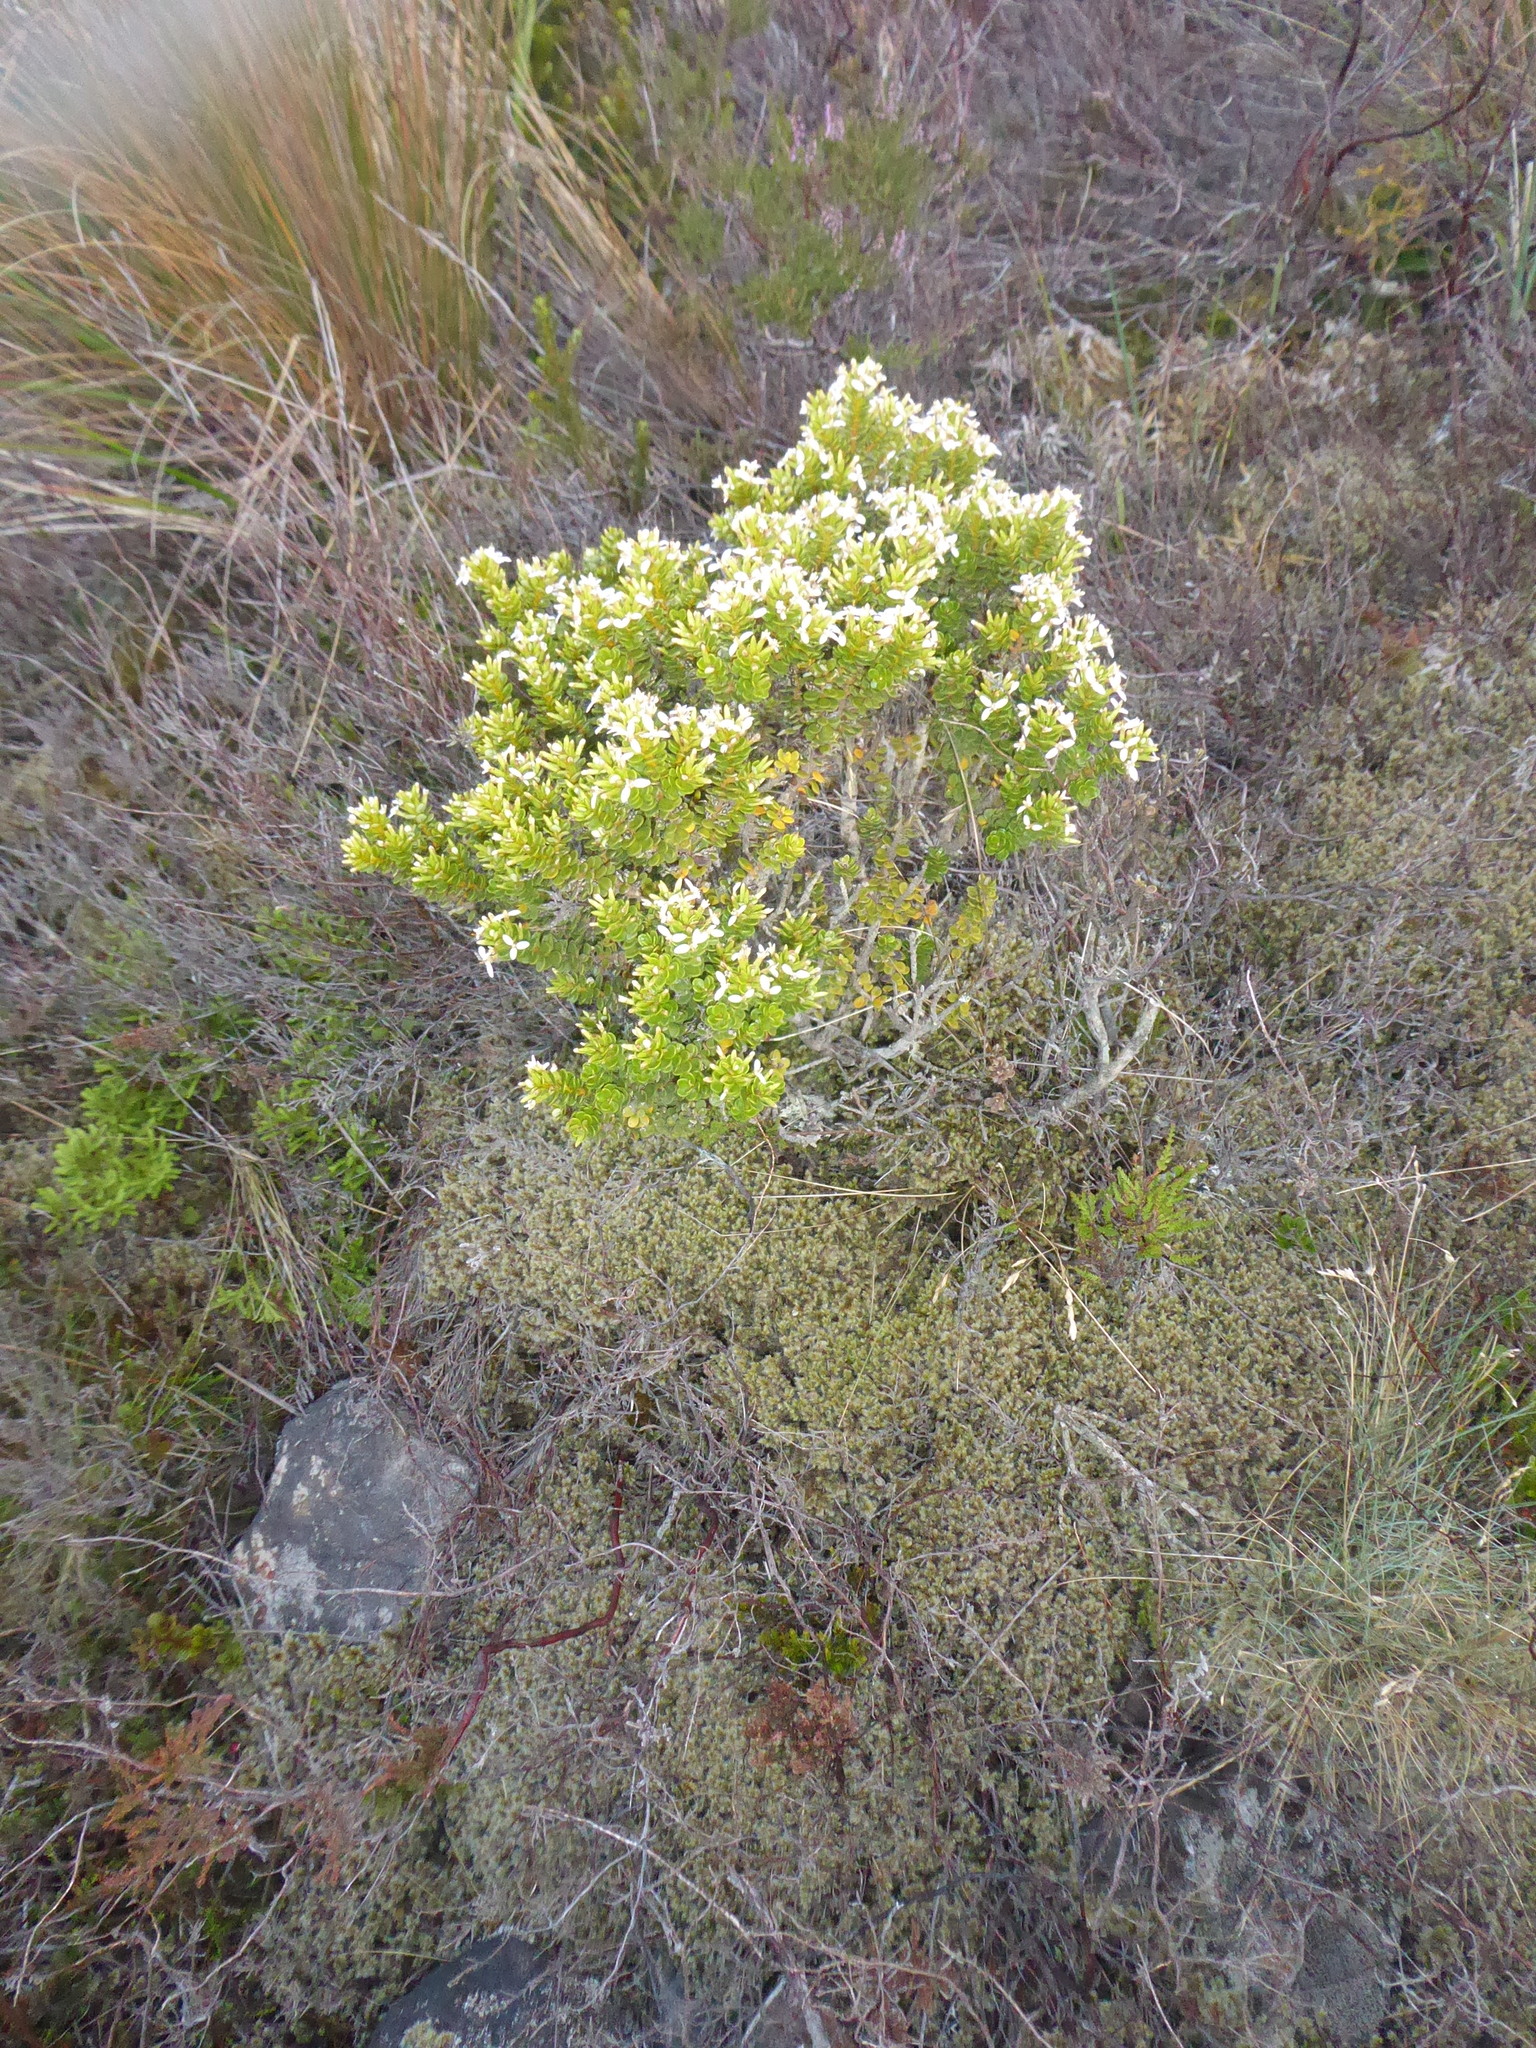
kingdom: Plantae
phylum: Tracheophyta
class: Magnoliopsida
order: Asterales
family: Asteraceae
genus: Olearia
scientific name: Olearia nummularifolia
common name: Sticky daisybush
